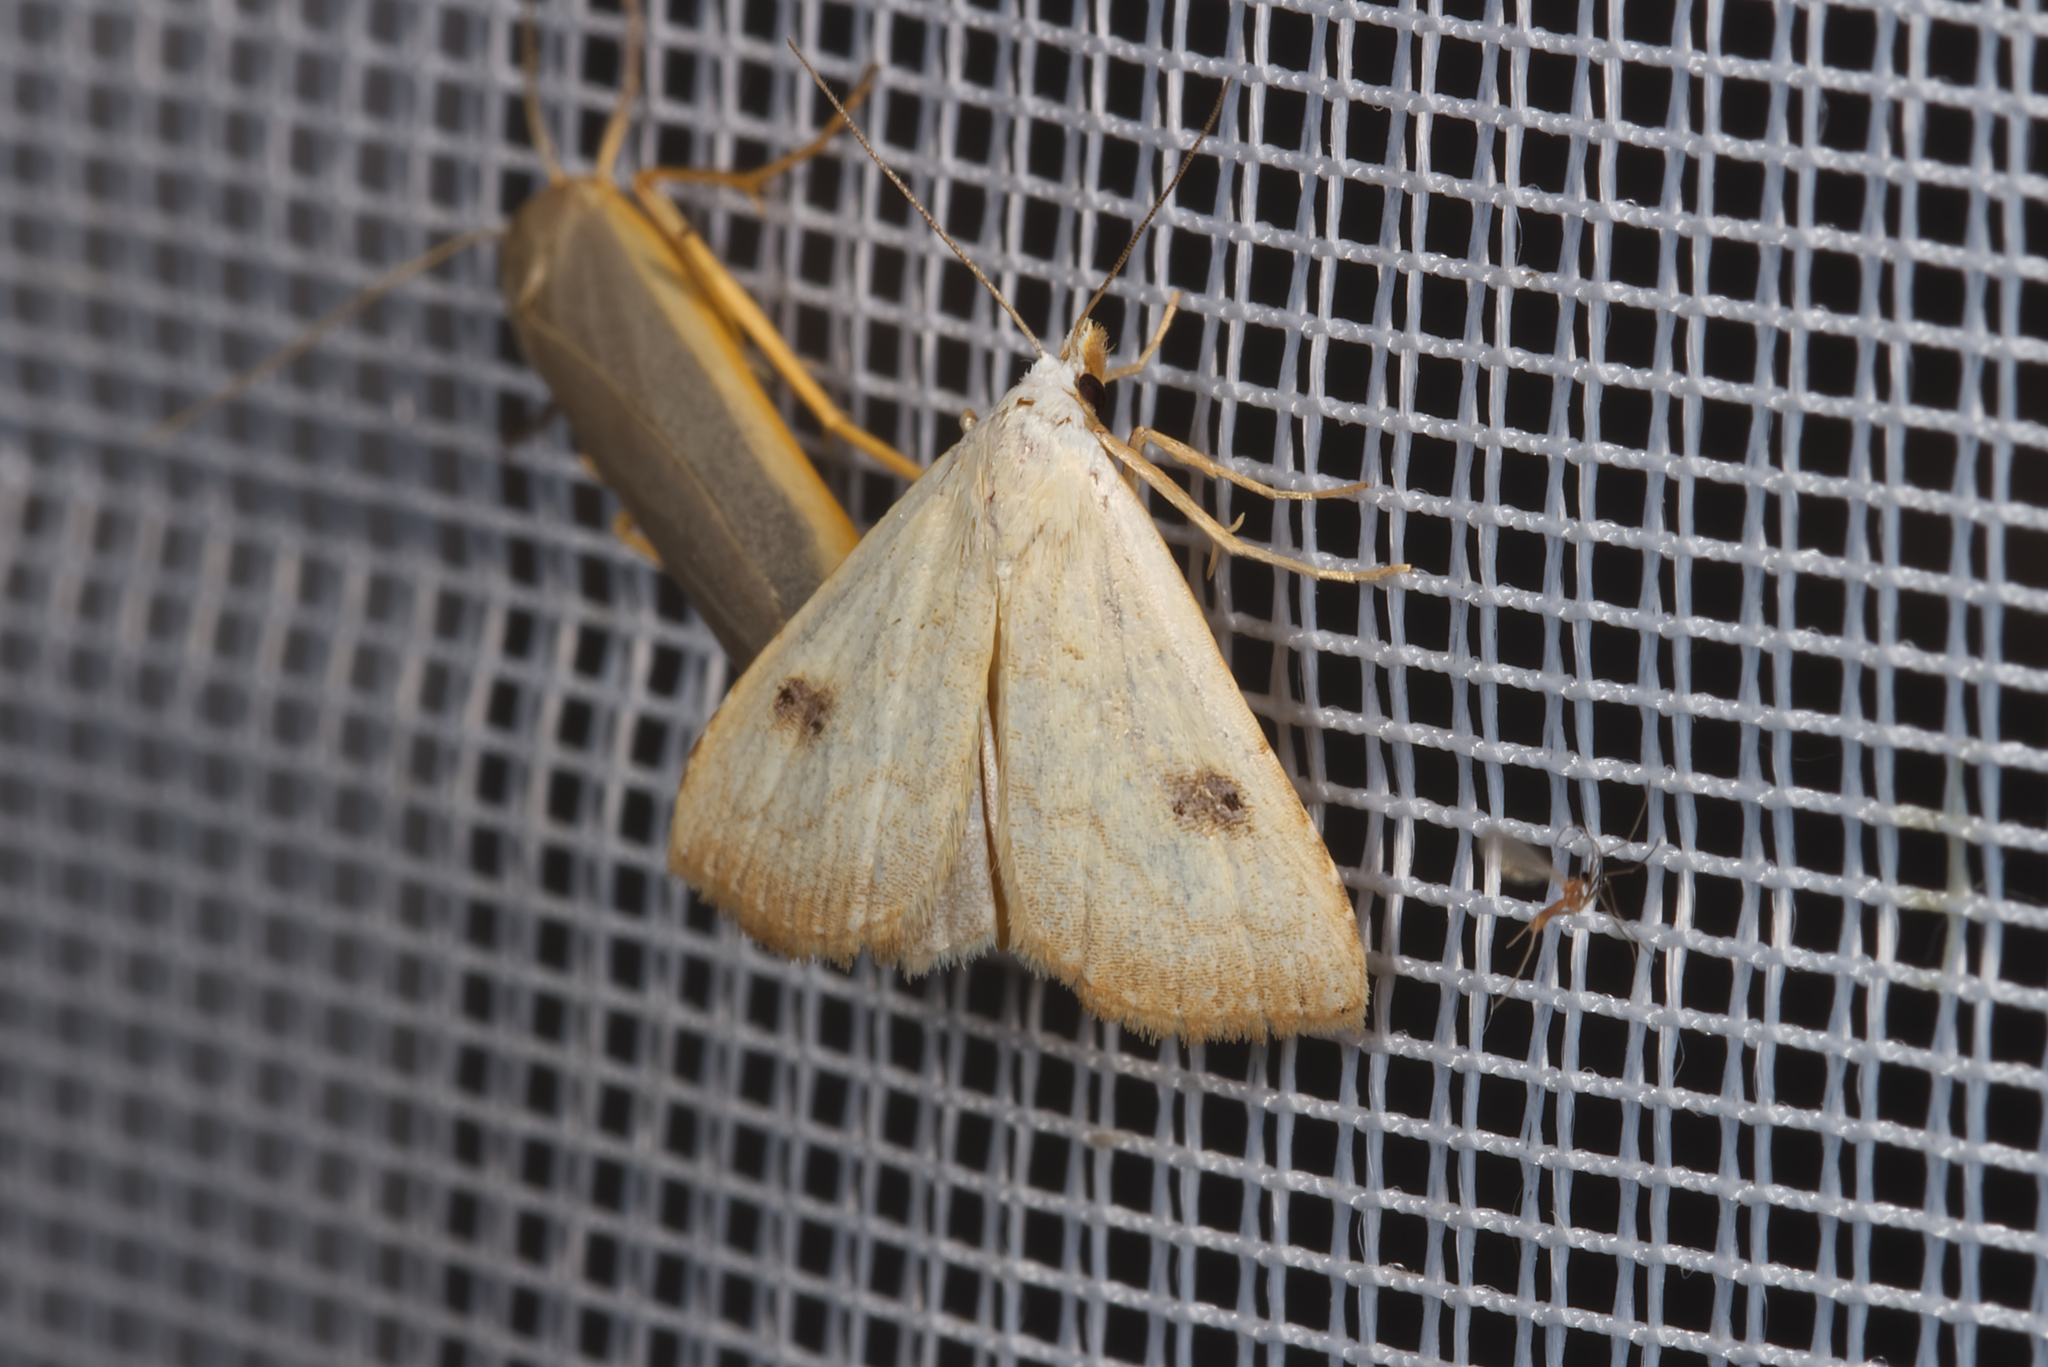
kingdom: Animalia
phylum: Arthropoda
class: Insecta
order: Lepidoptera
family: Erebidae
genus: Rivula
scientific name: Rivula sericealis
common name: Straw dot
